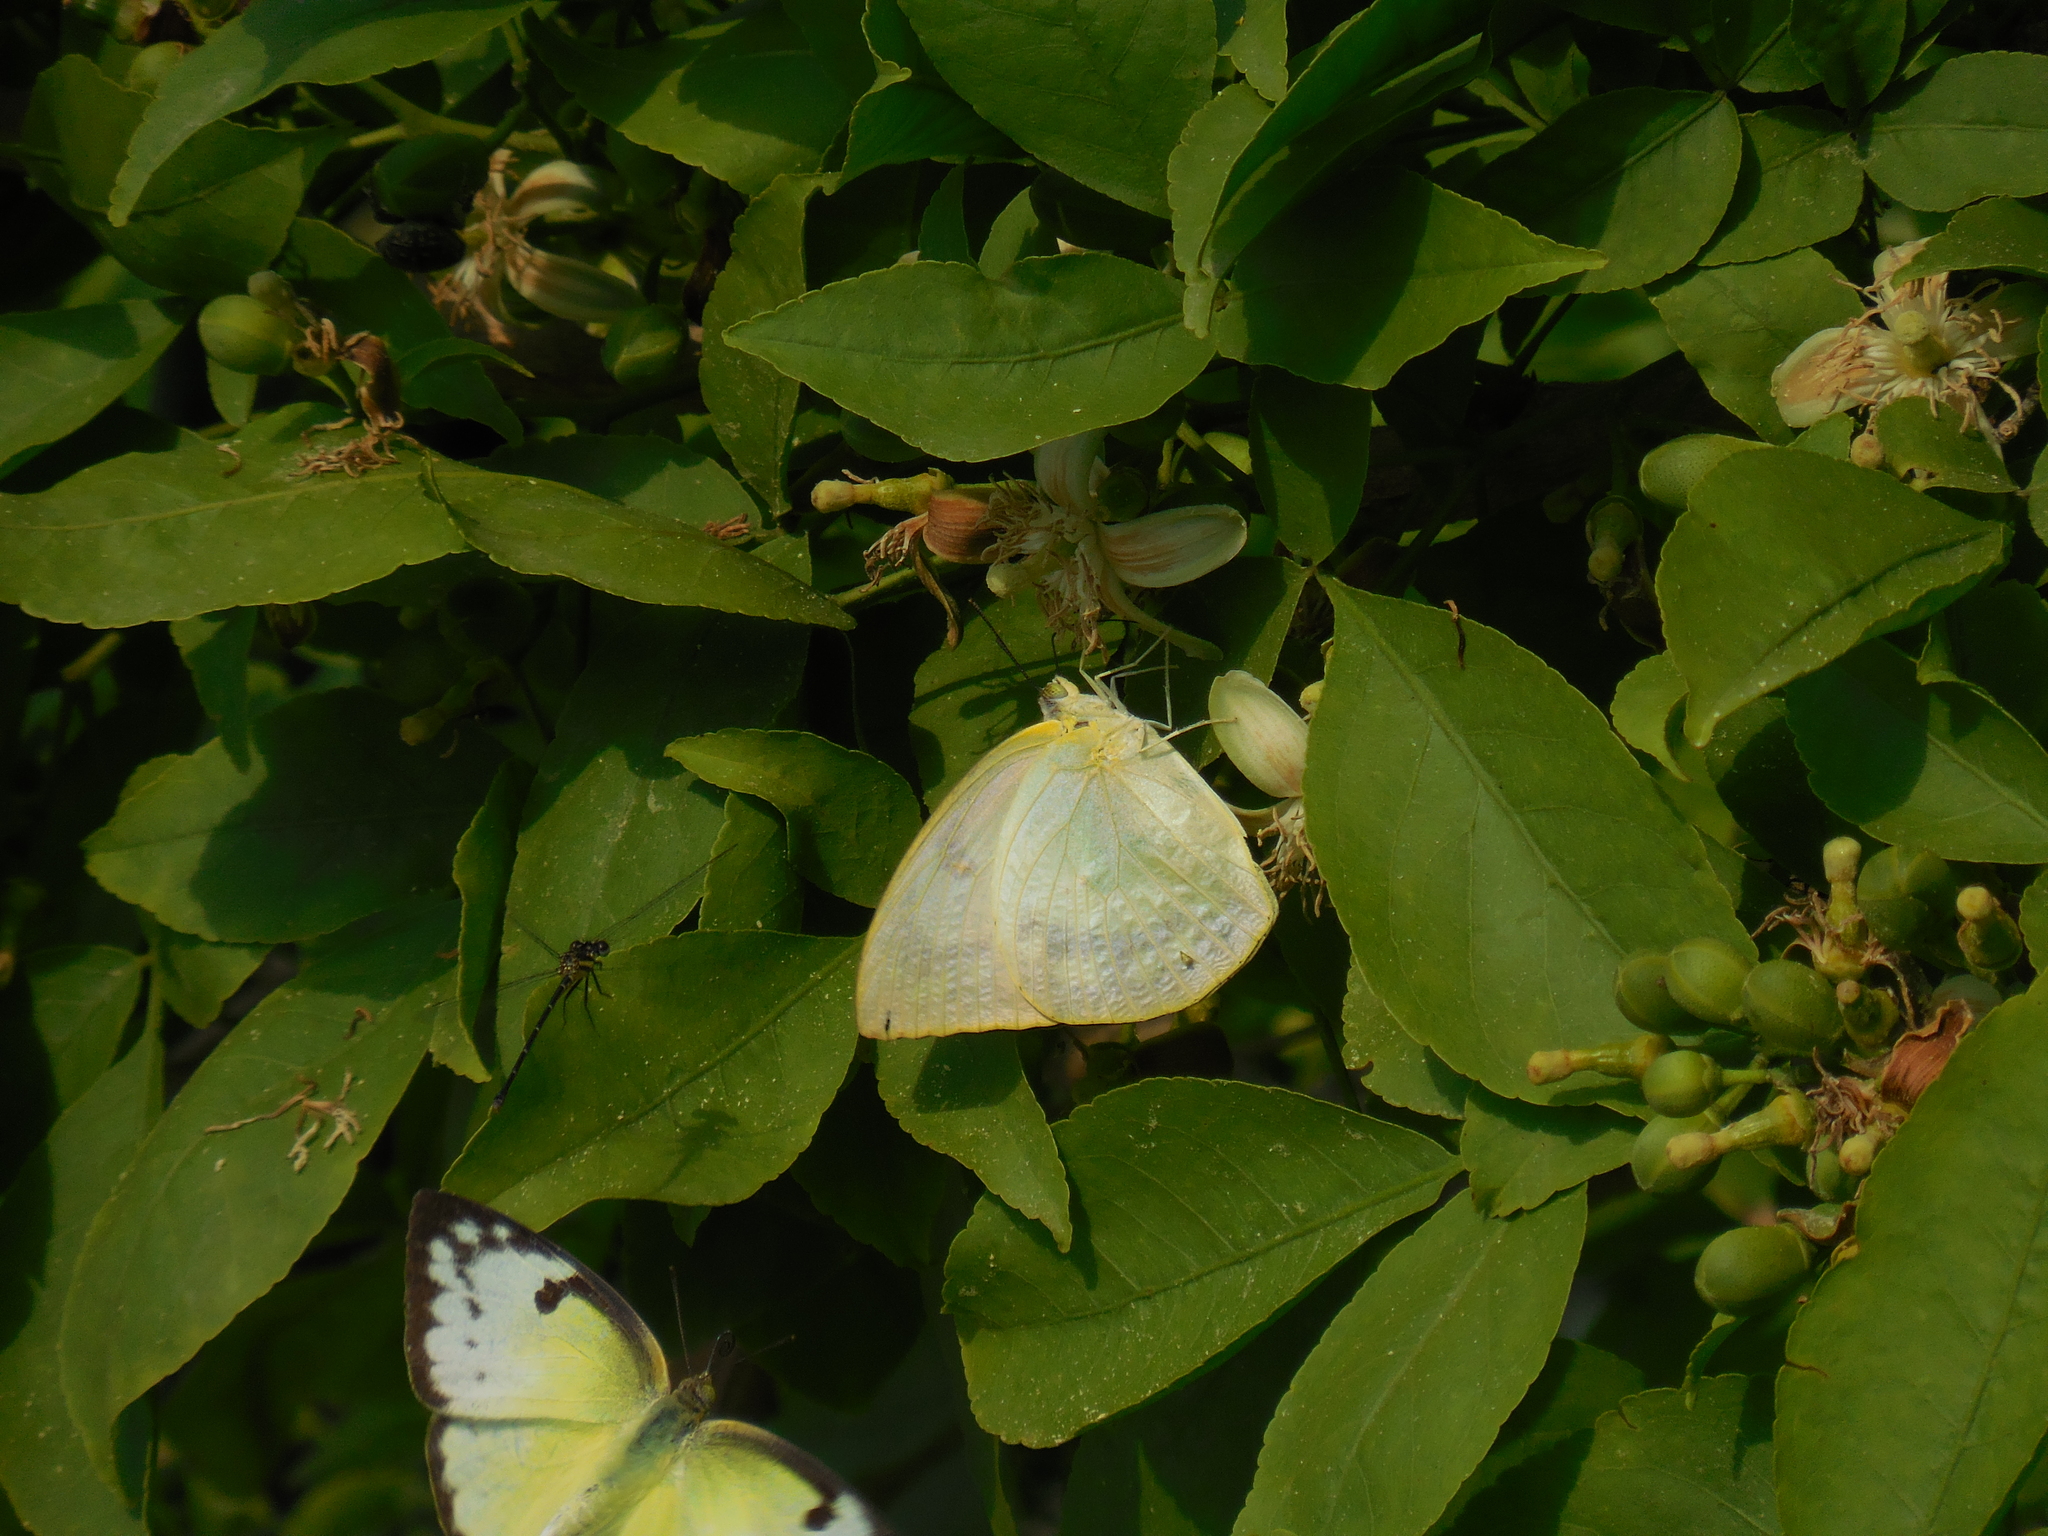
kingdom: Animalia
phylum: Arthropoda
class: Insecta
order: Lepidoptera
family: Pieridae
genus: Catopsilia
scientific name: Catopsilia pomona
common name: Common emigrant
